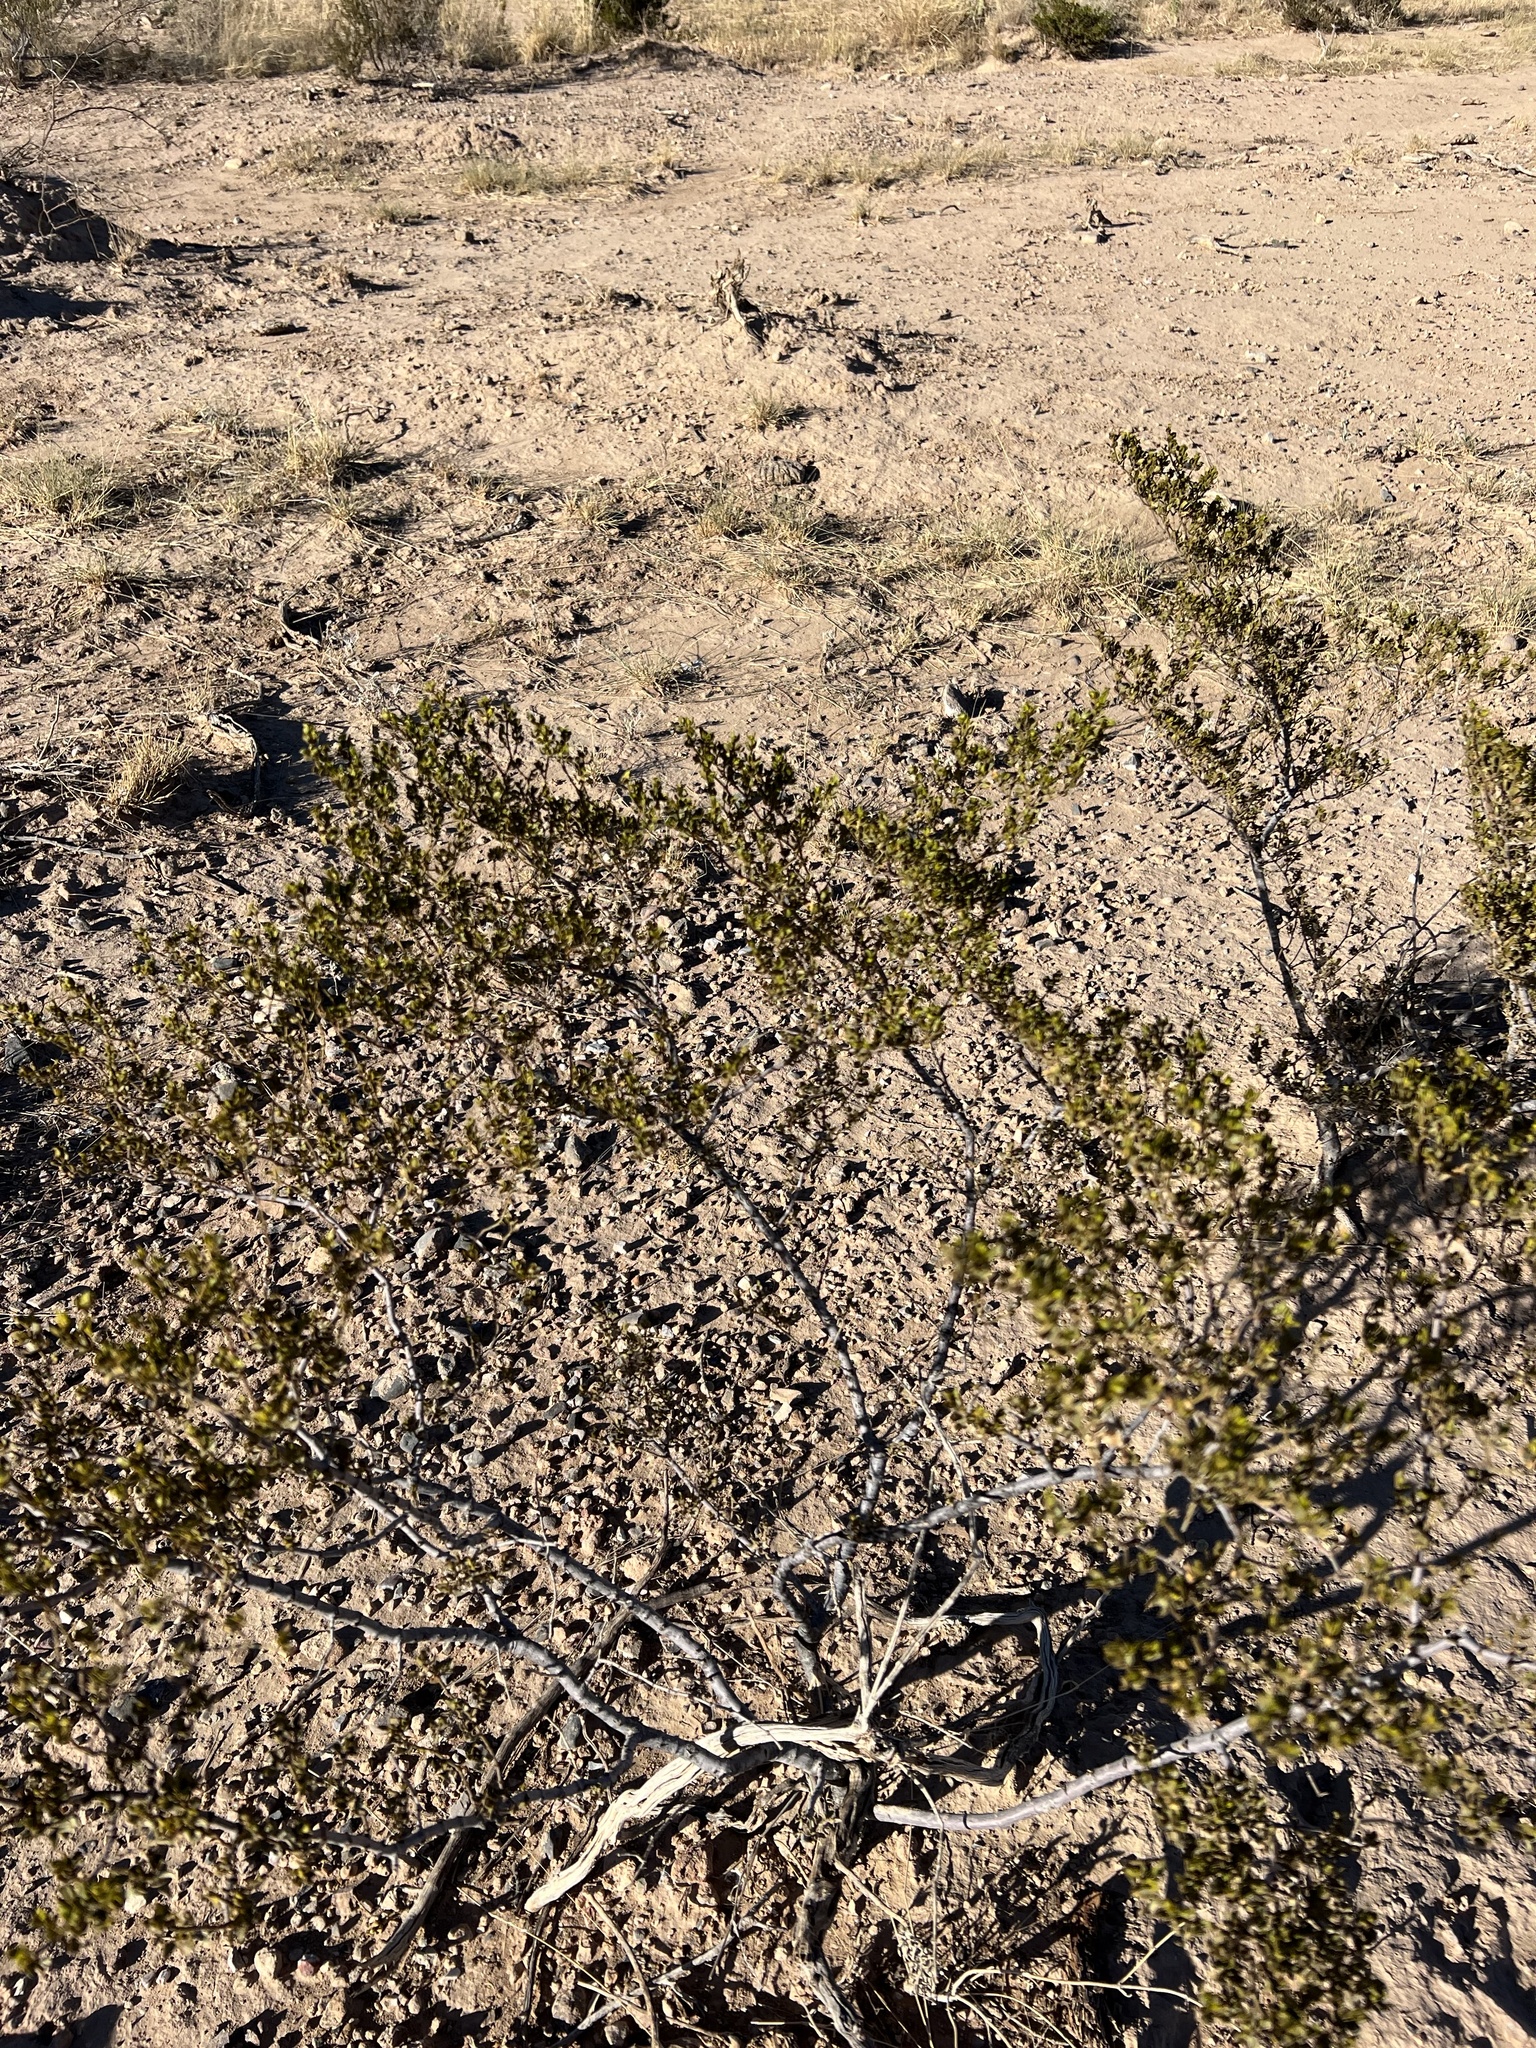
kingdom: Plantae
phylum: Tracheophyta
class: Magnoliopsida
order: Zygophyllales
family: Zygophyllaceae
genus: Larrea
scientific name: Larrea tridentata
